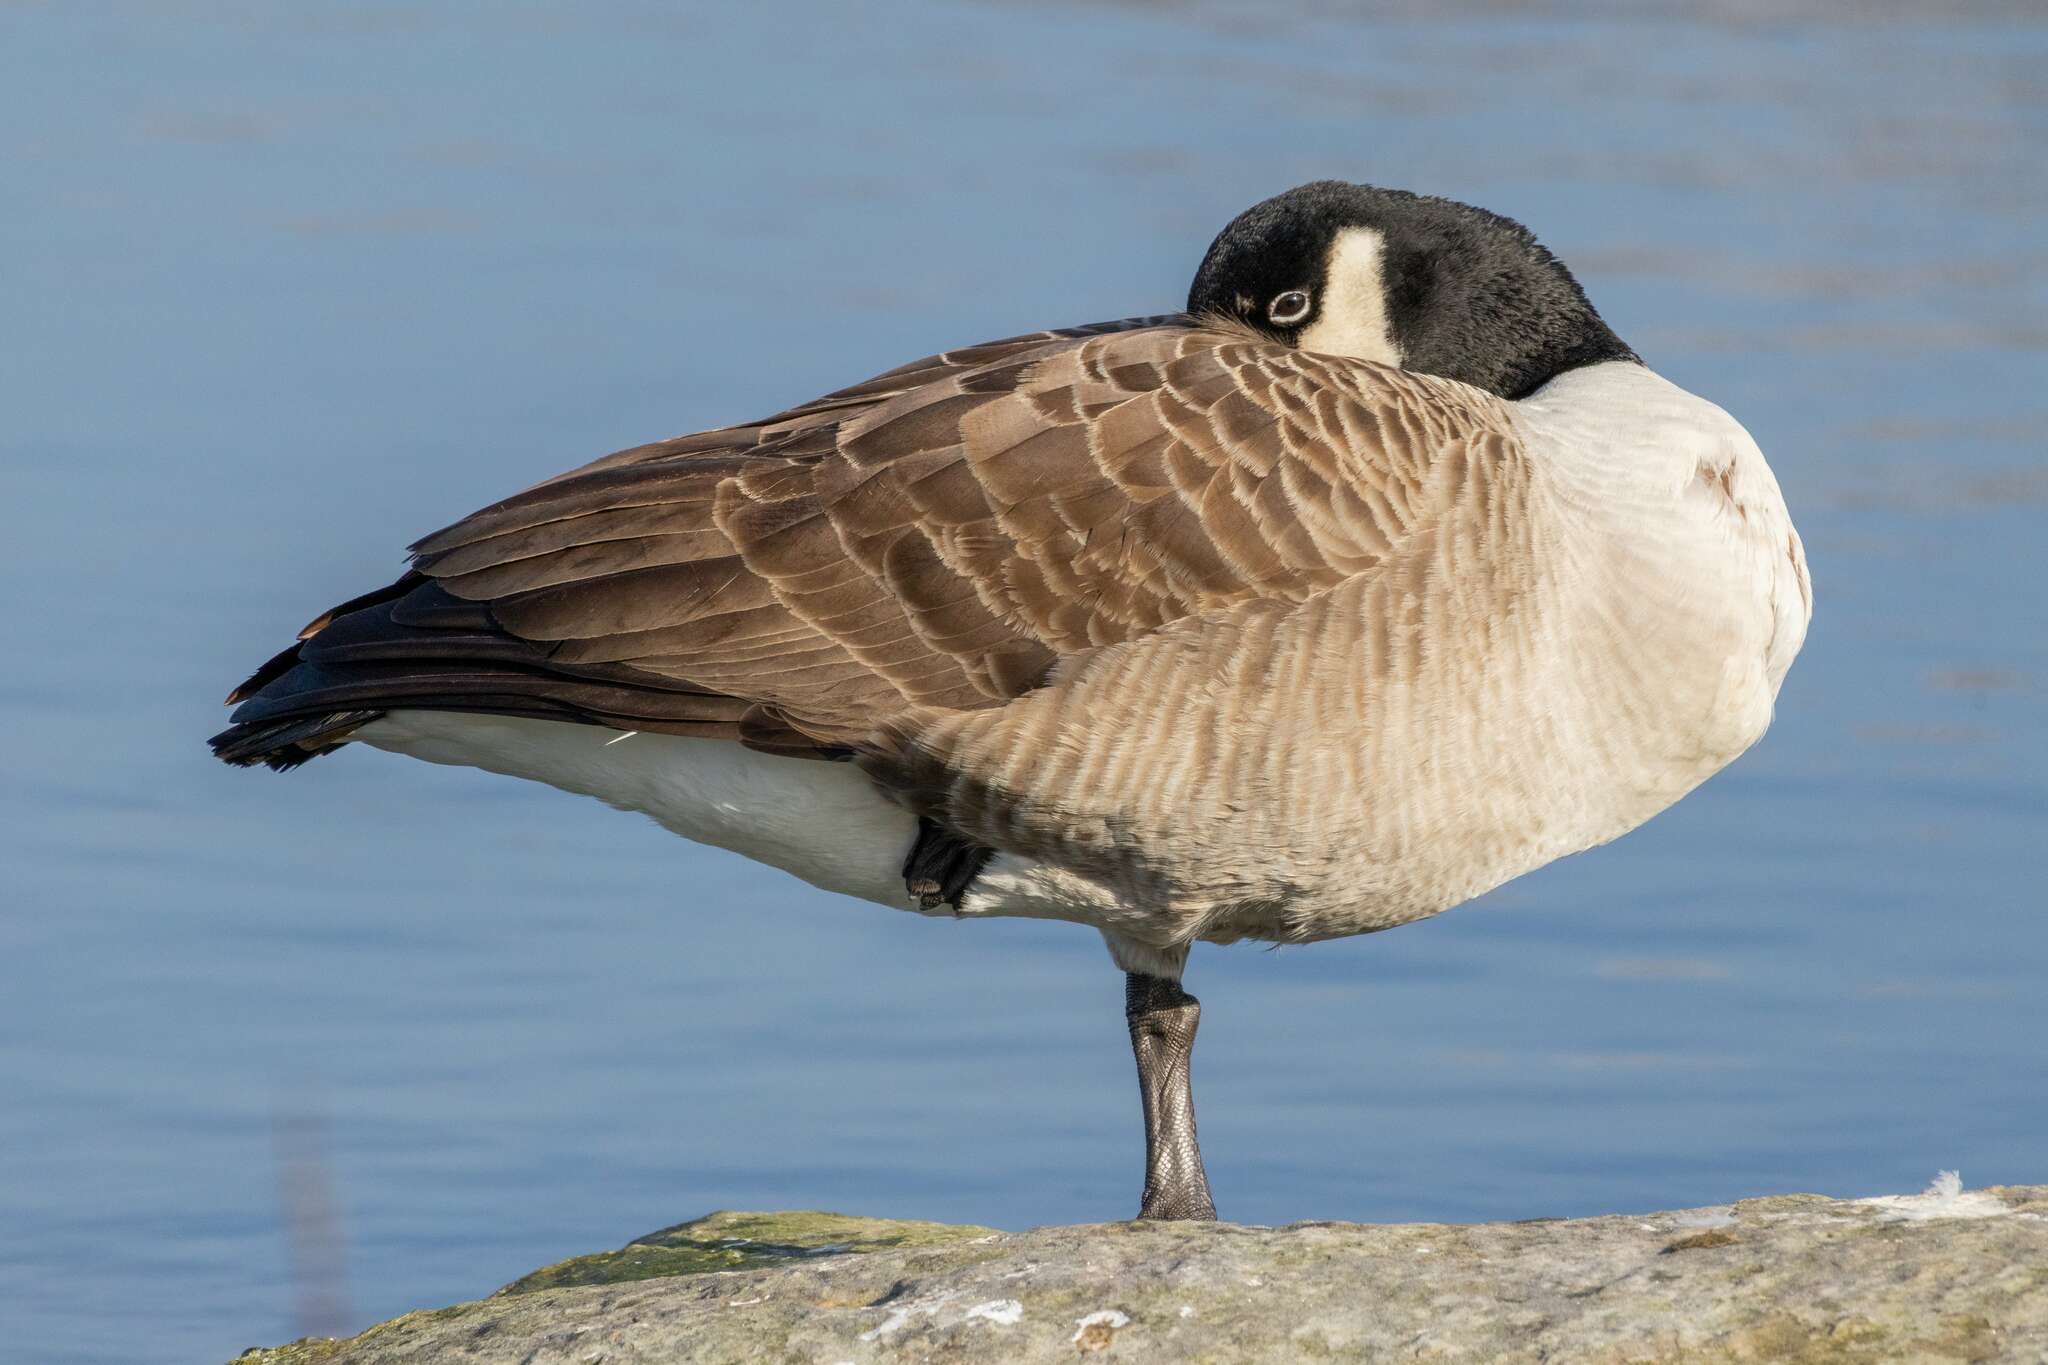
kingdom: Animalia
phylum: Chordata
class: Aves
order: Anseriformes
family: Anatidae
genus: Branta
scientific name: Branta canadensis
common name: Canada goose
